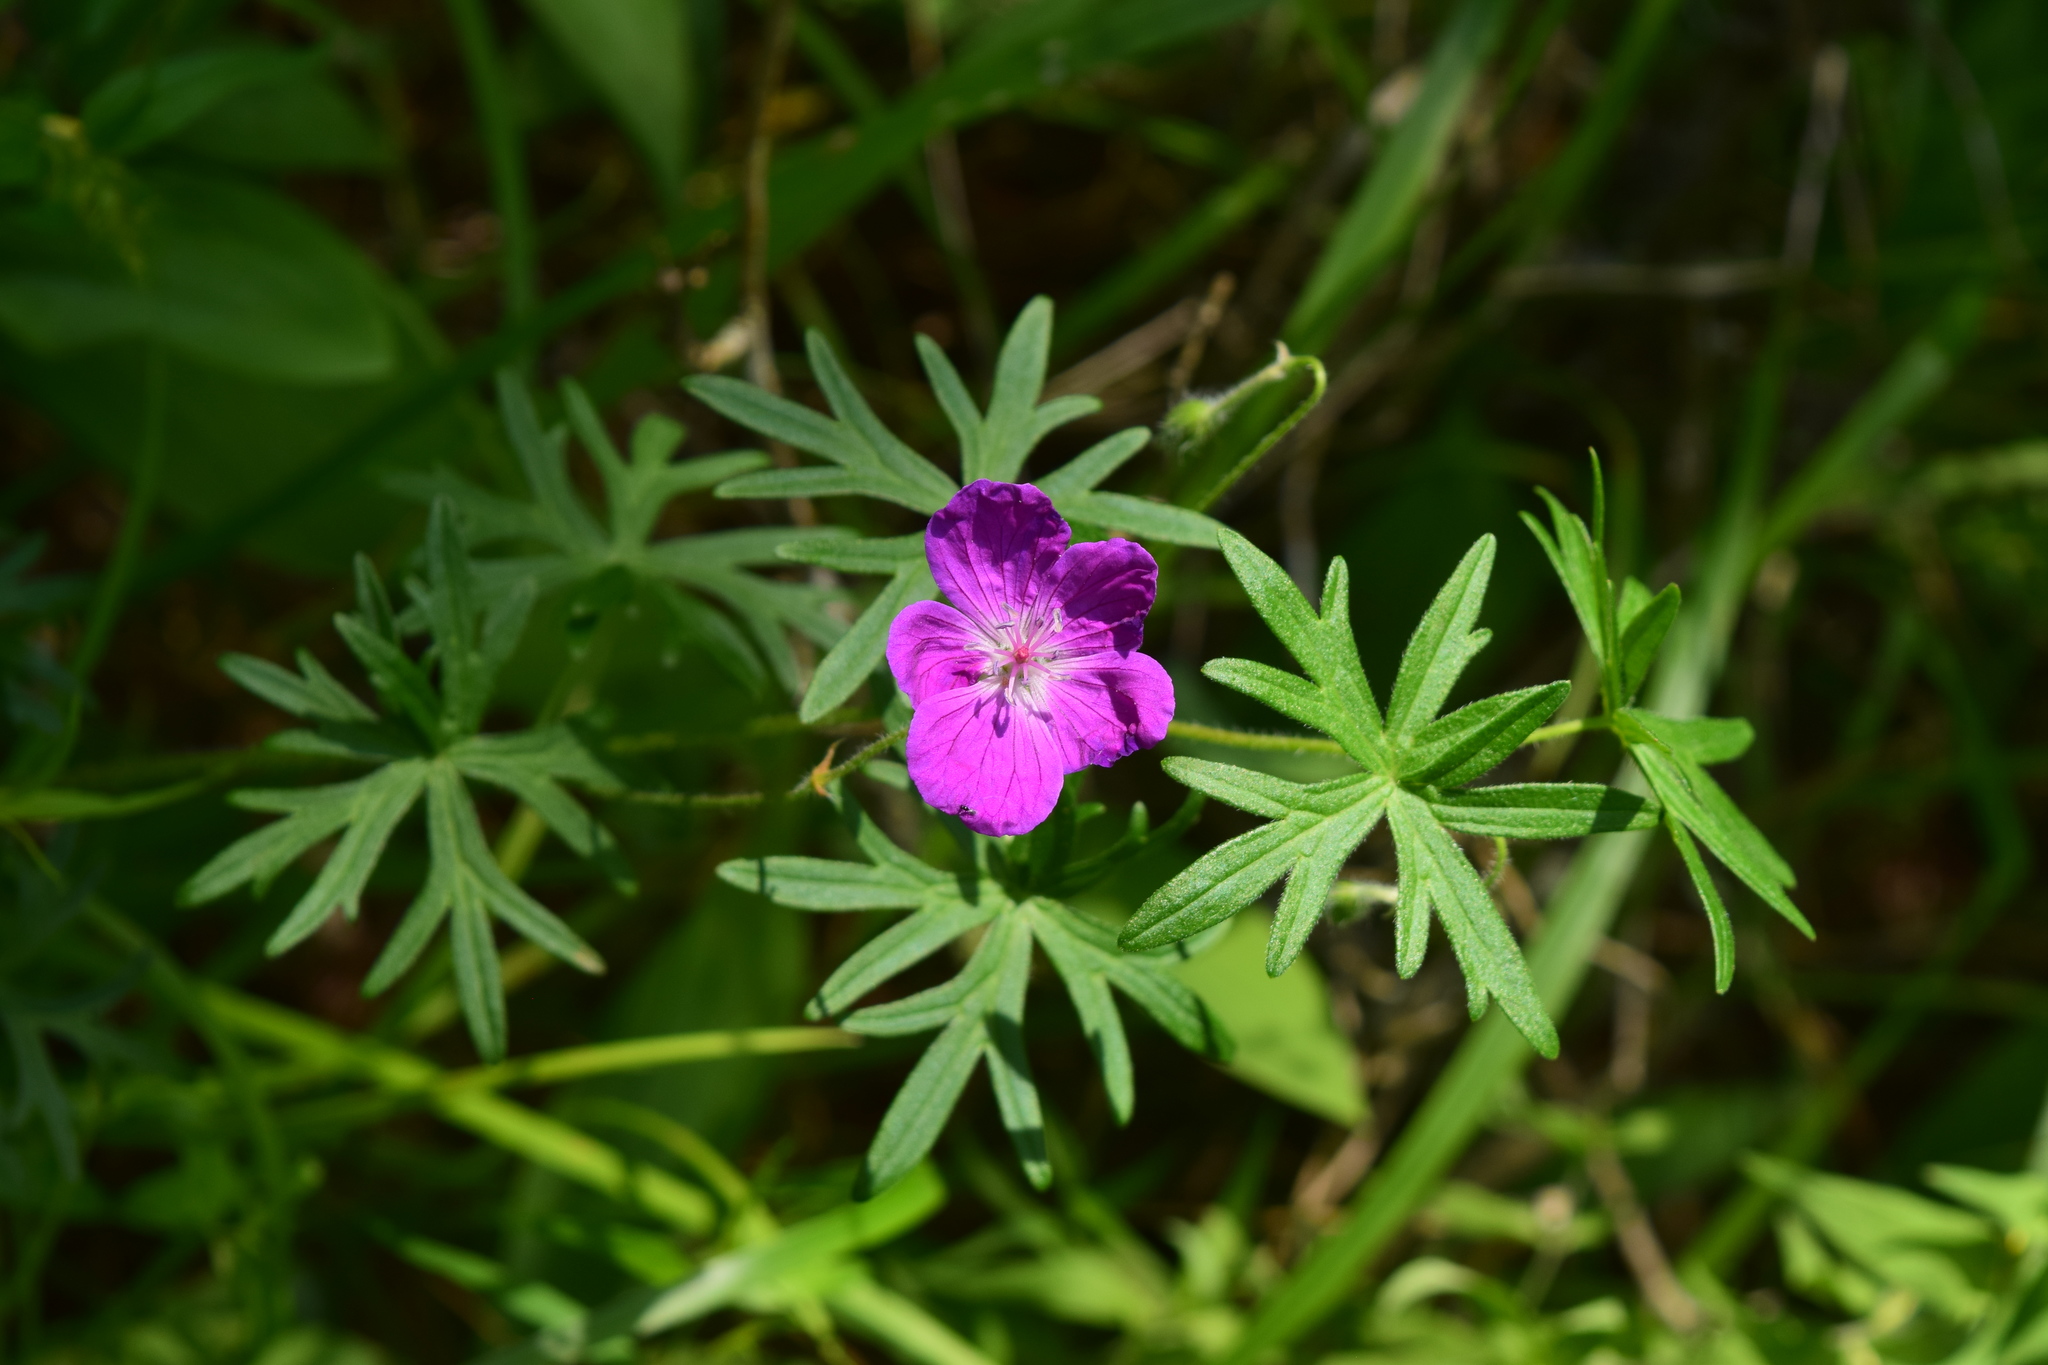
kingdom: Plantae
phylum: Tracheophyta
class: Magnoliopsida
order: Geraniales
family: Geraniaceae
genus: Geranium
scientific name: Geranium sanguineum
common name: Bloody crane's-bill
